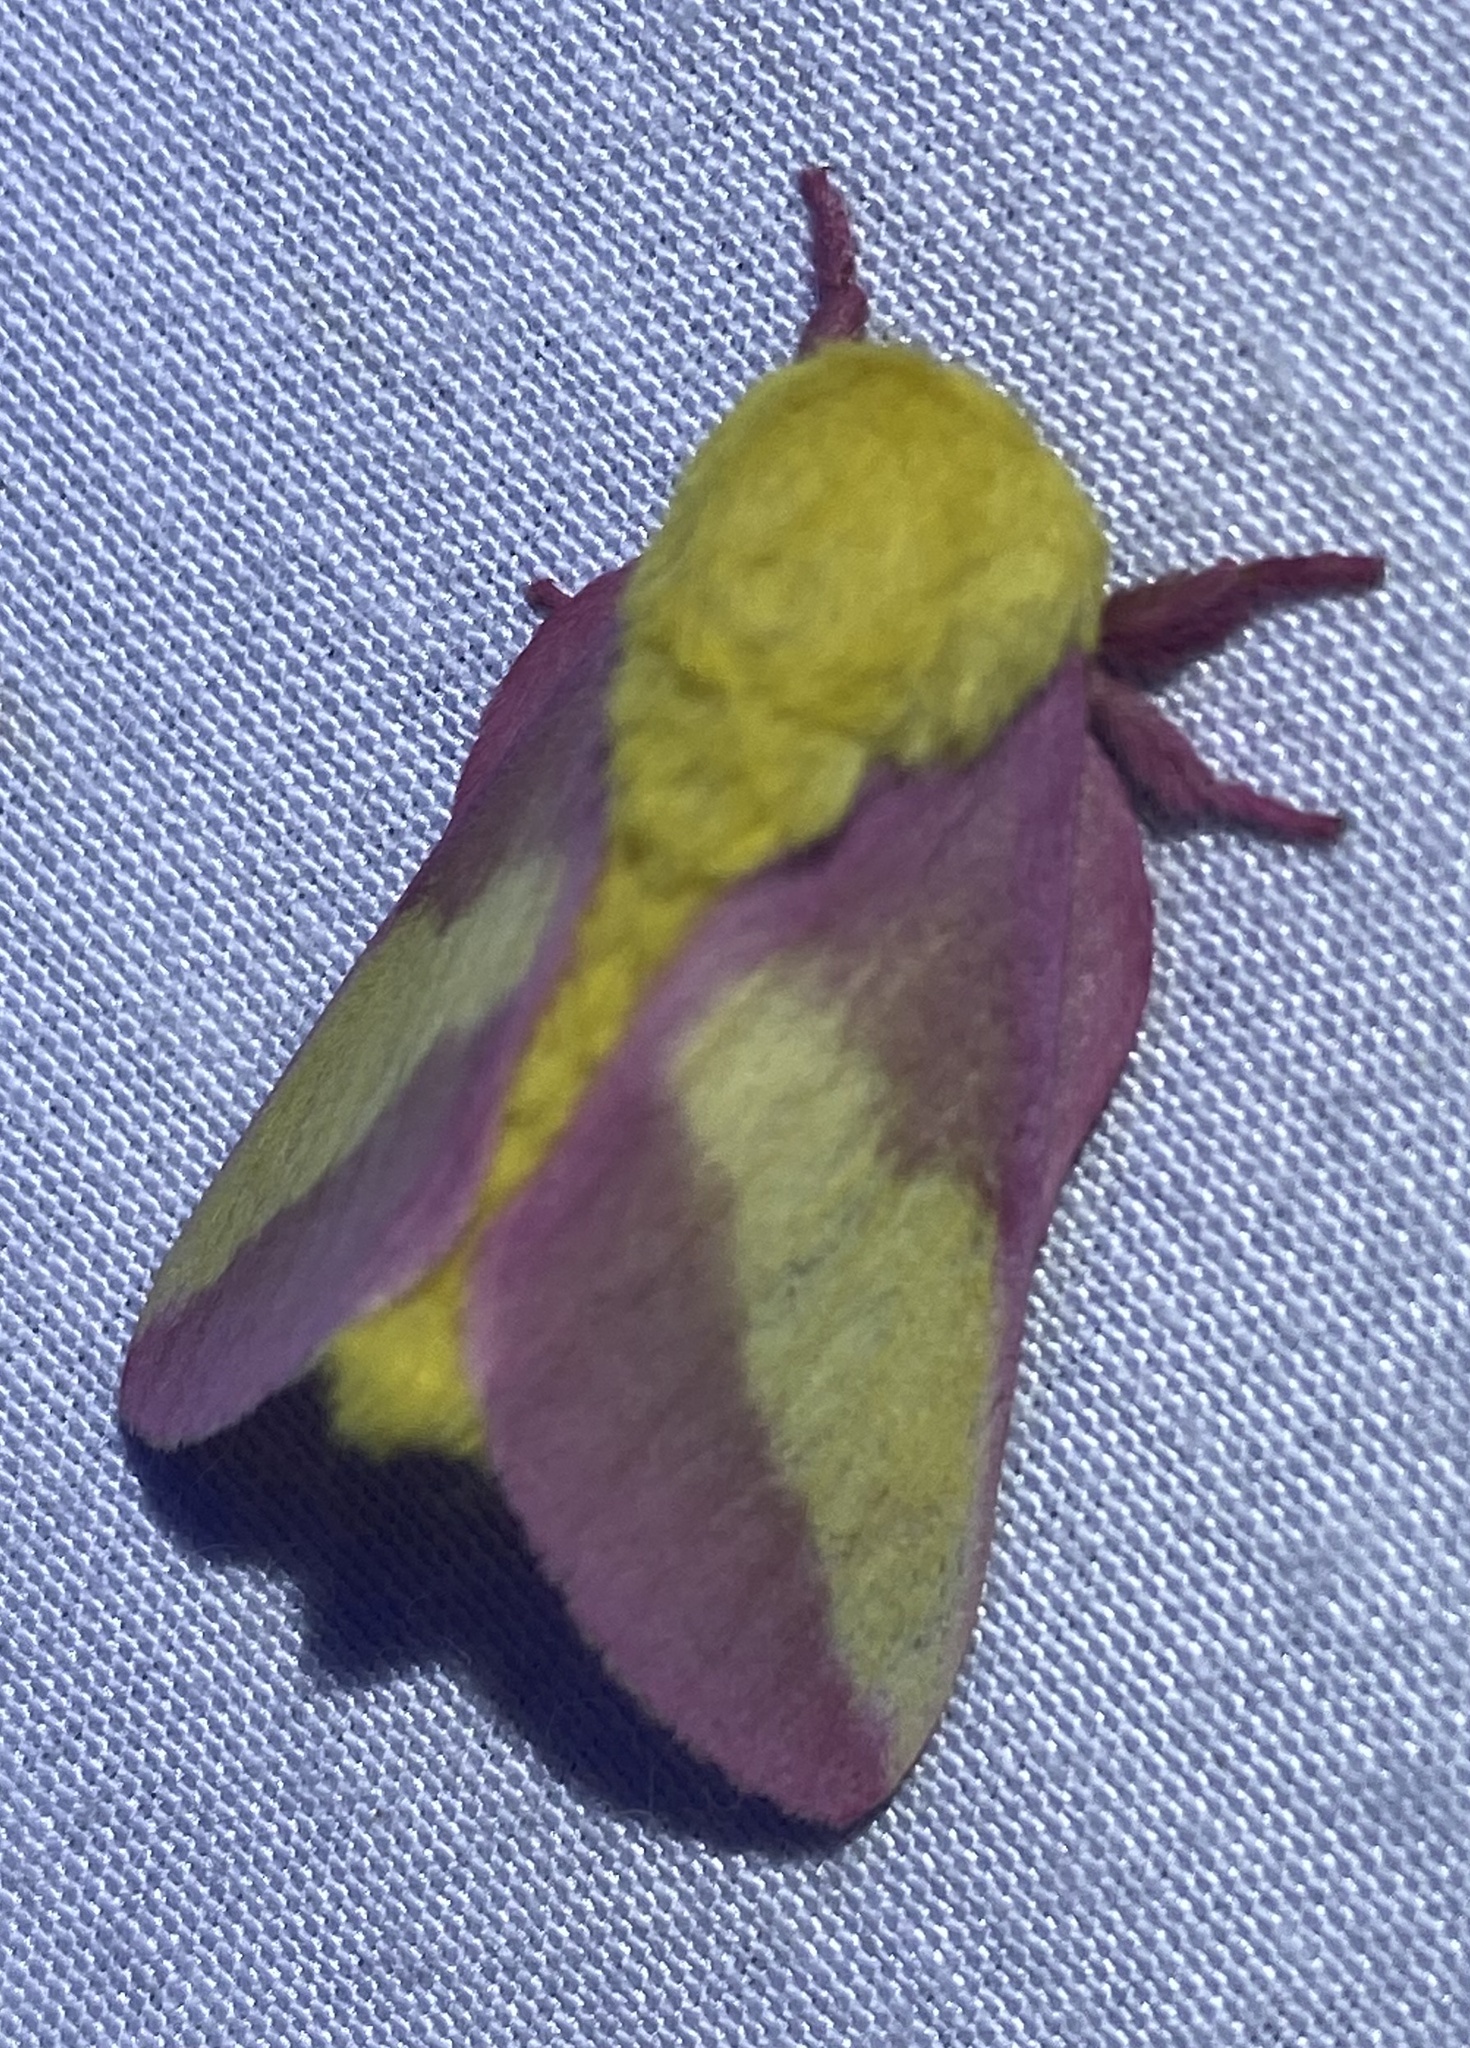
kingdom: Animalia
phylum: Arthropoda
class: Insecta
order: Lepidoptera
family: Saturniidae
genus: Dryocampa
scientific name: Dryocampa rubicunda
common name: Rosy maple moth
